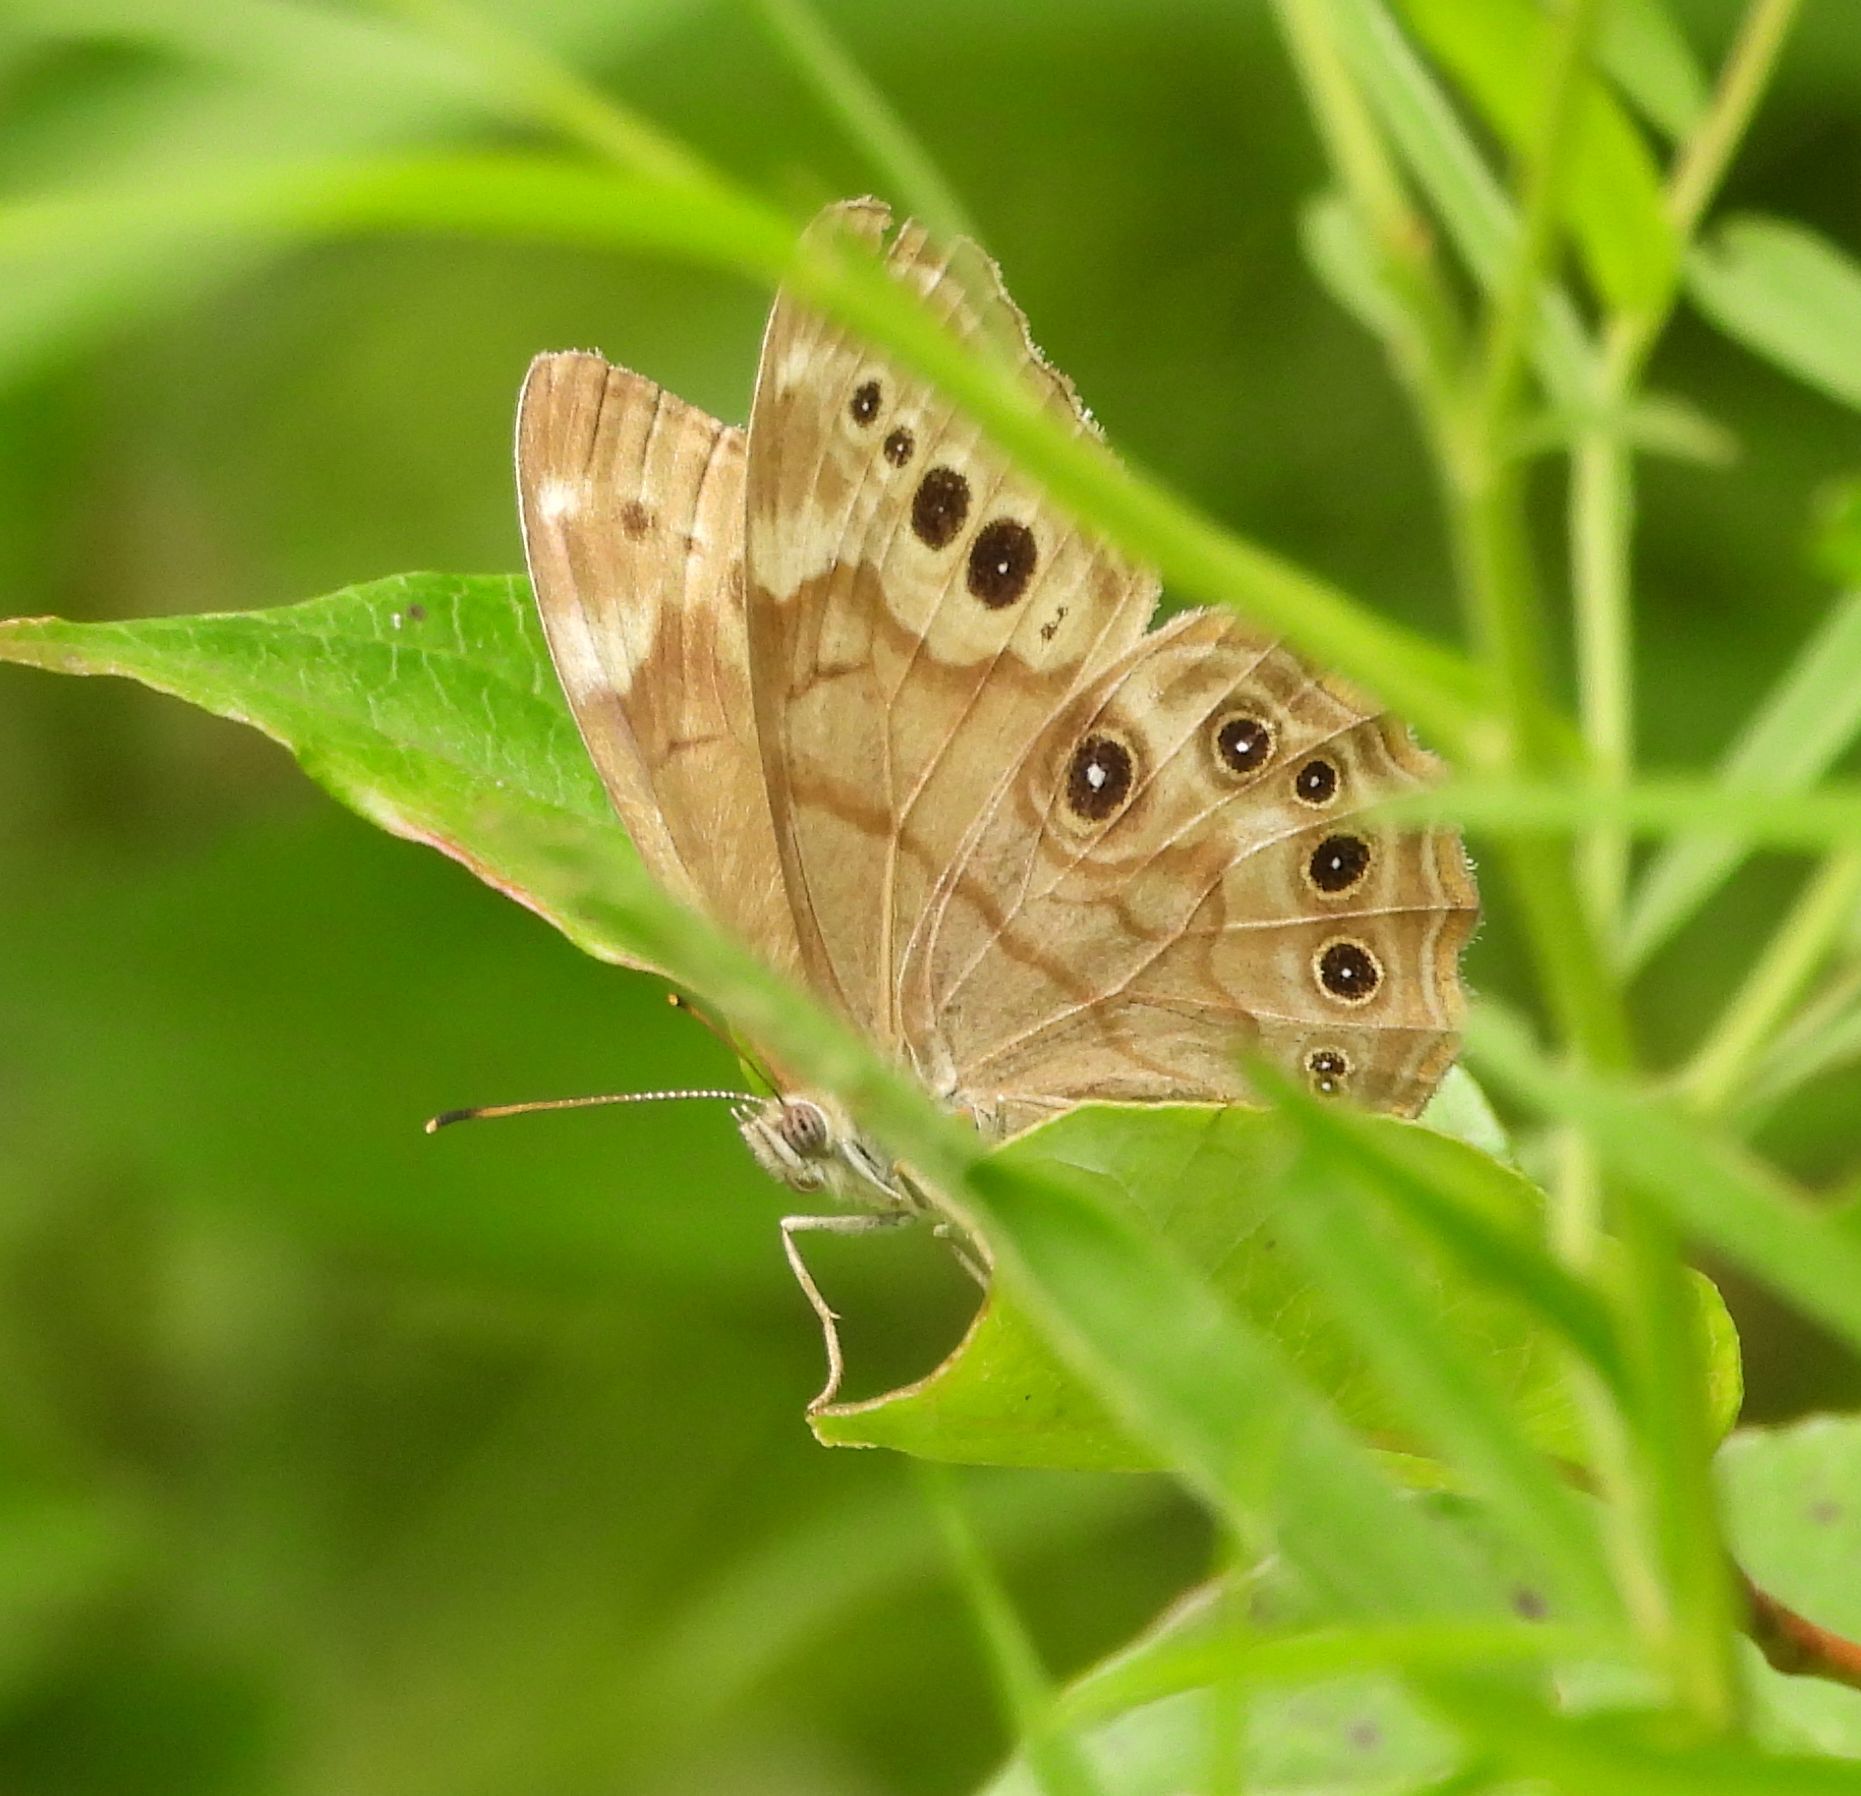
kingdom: Animalia
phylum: Arthropoda
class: Insecta
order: Lepidoptera
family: Nymphalidae
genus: Lethe
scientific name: Lethe anthedon
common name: Northern pearly-eye
